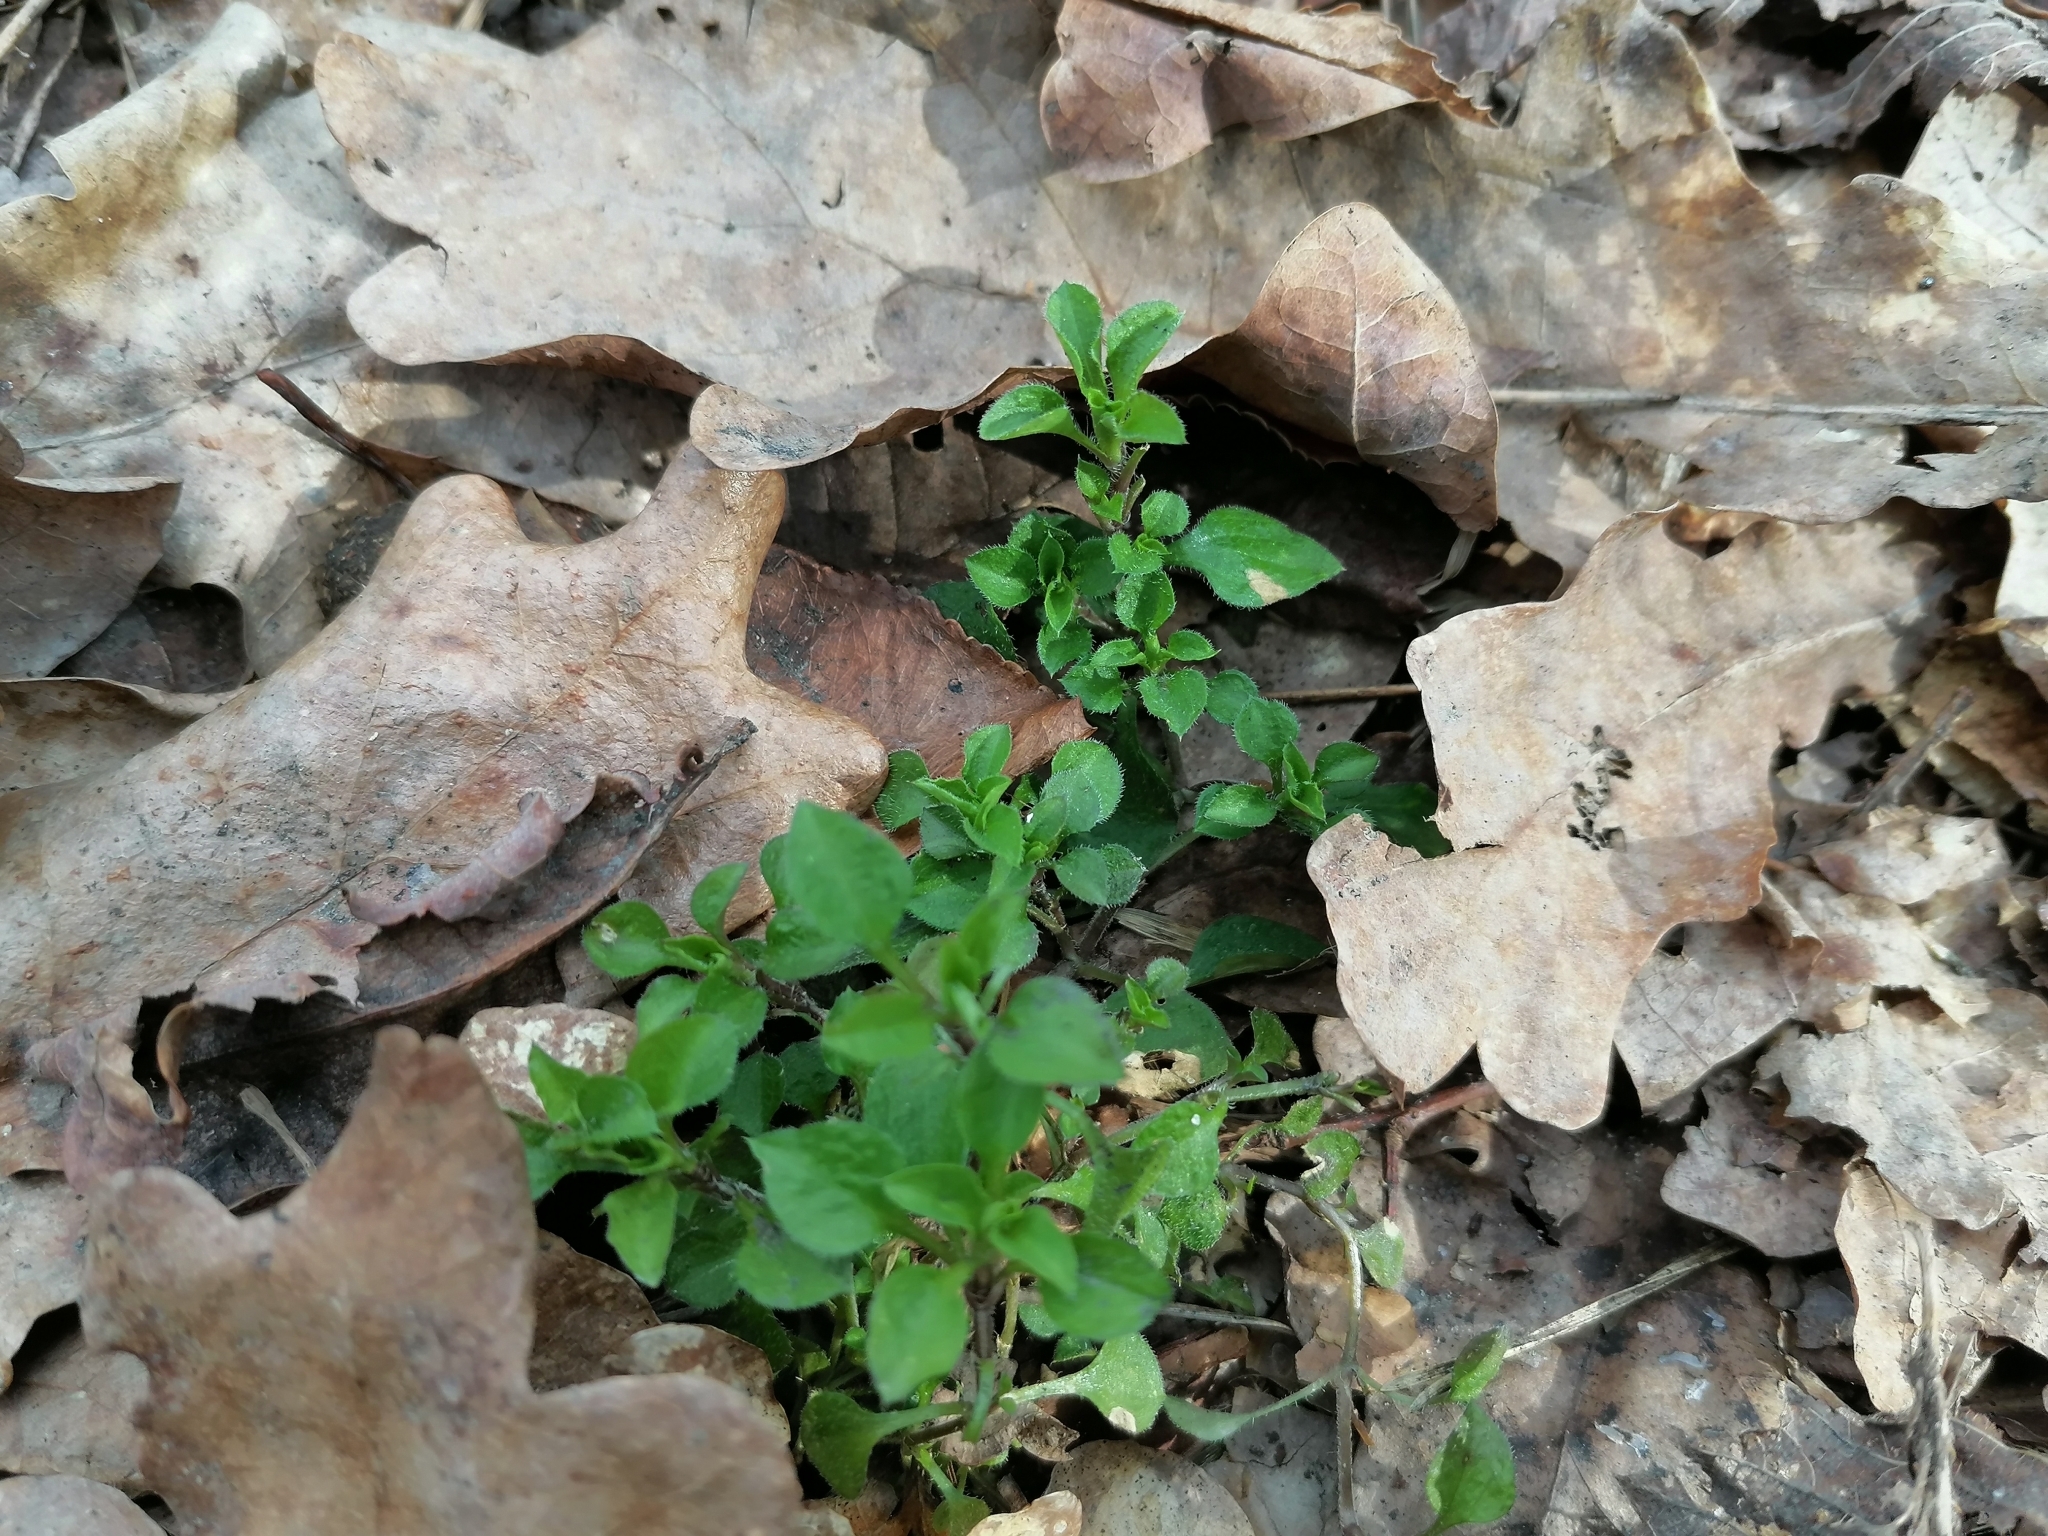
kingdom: Plantae
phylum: Tracheophyta
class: Magnoliopsida
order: Caryophyllales
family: Caryophyllaceae
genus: Moehringia
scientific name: Moehringia trinervia
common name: Three-nerved sandwort
